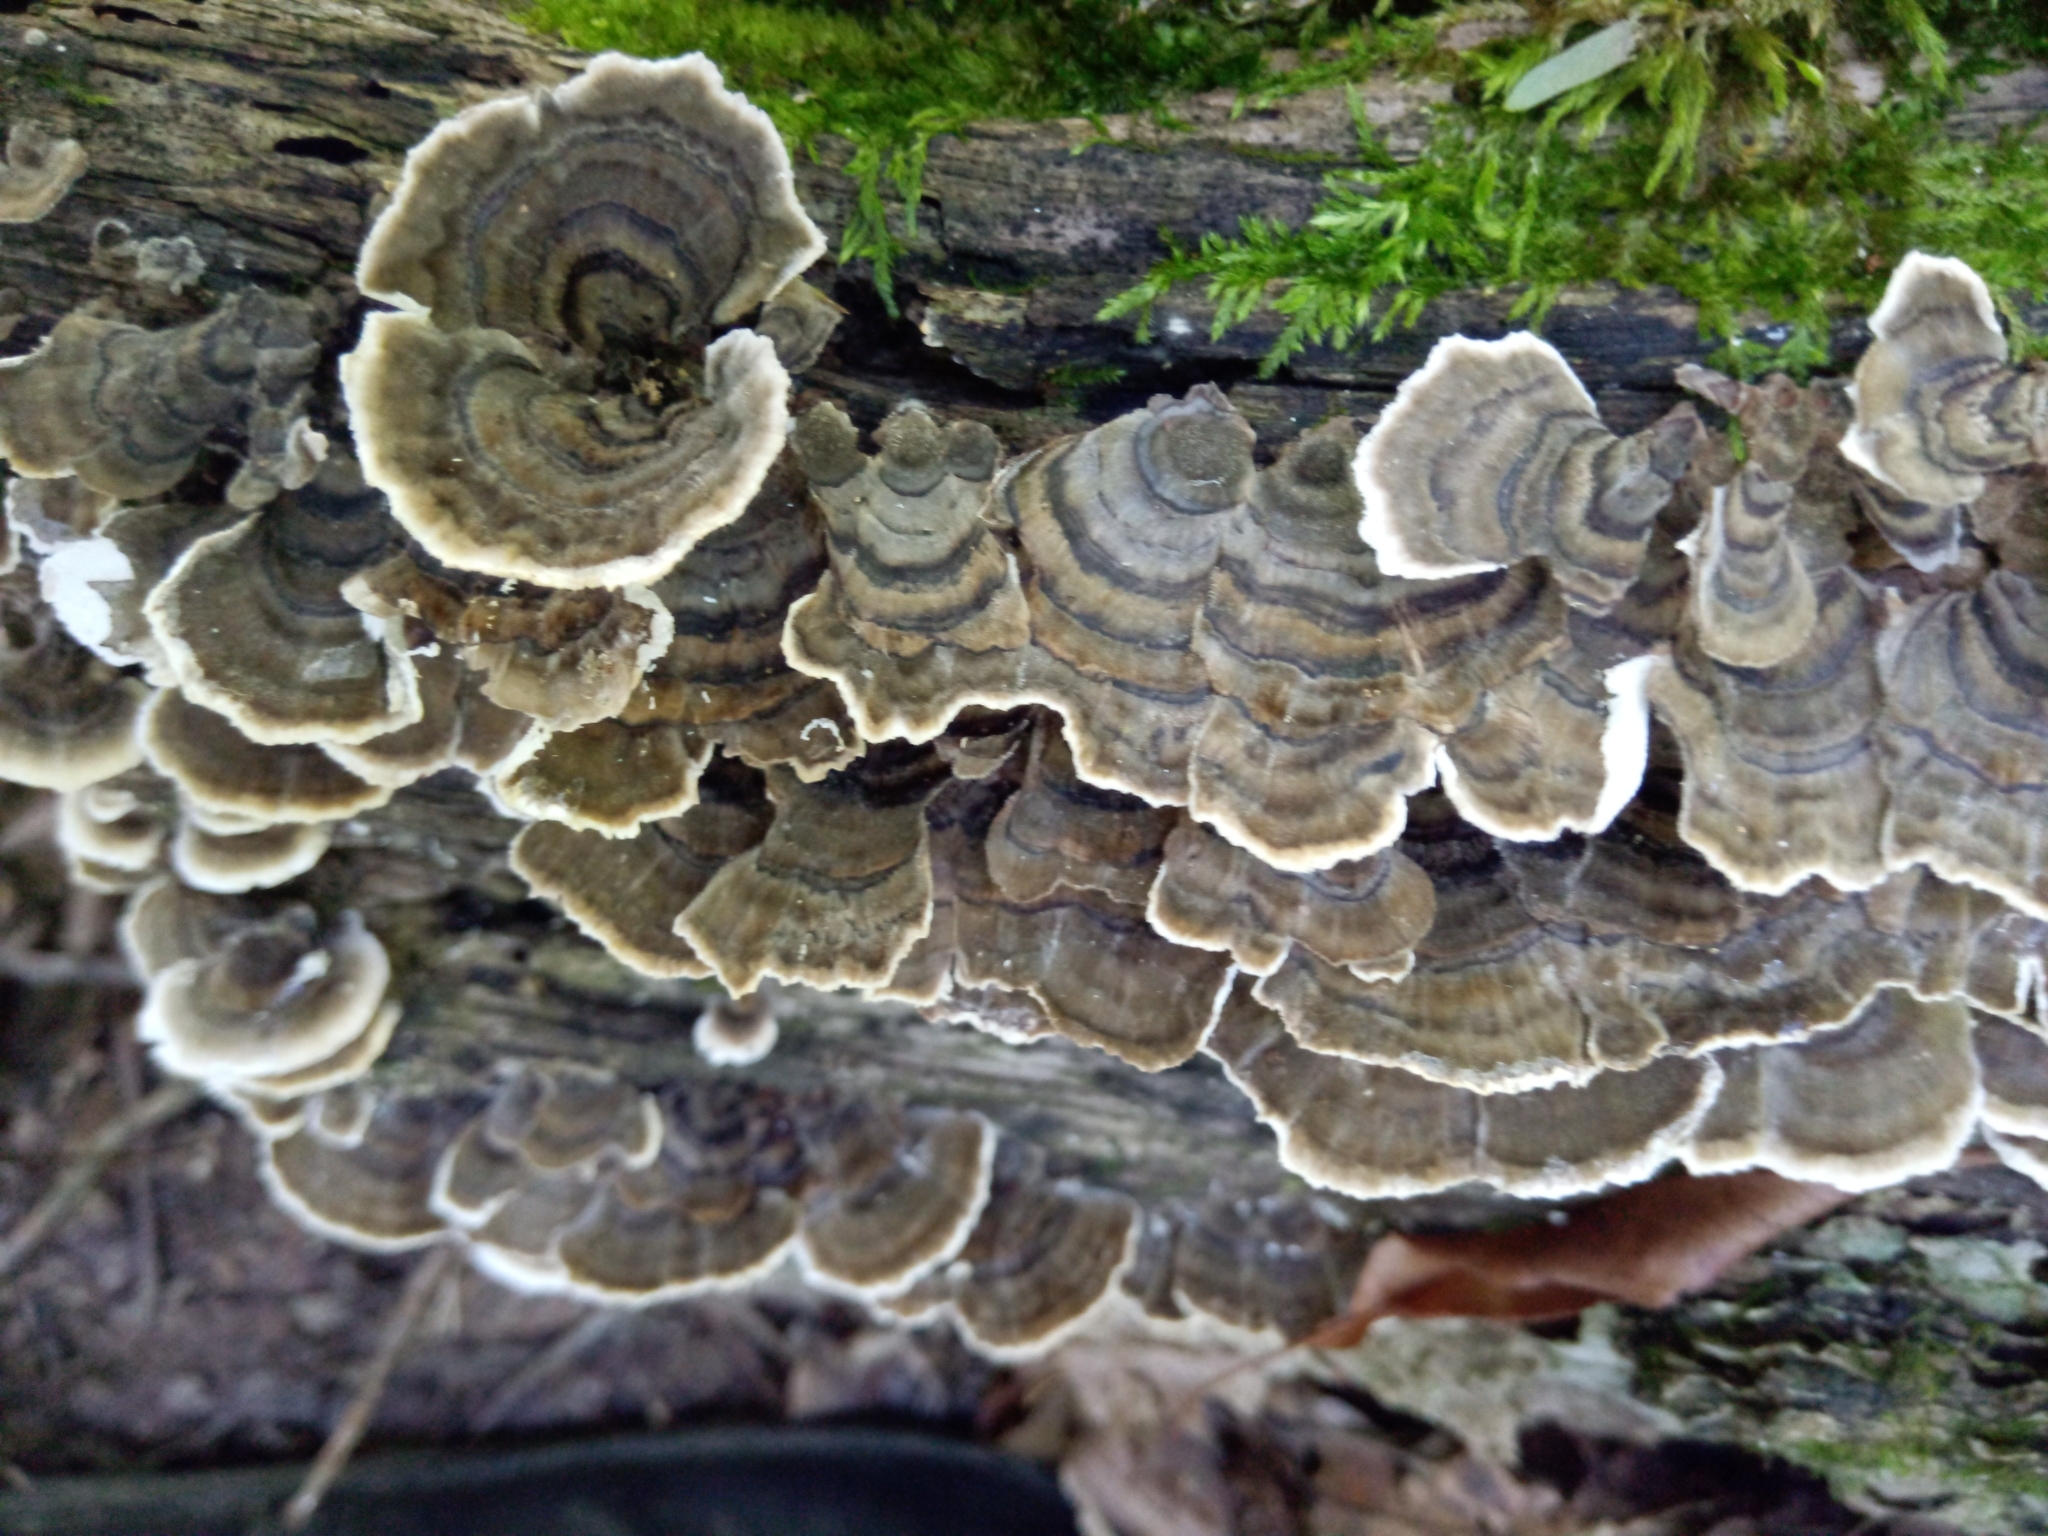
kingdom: Fungi
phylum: Basidiomycota
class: Agaricomycetes
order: Polyporales
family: Polyporaceae
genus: Trametes
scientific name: Trametes versicolor
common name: Turkeytail
